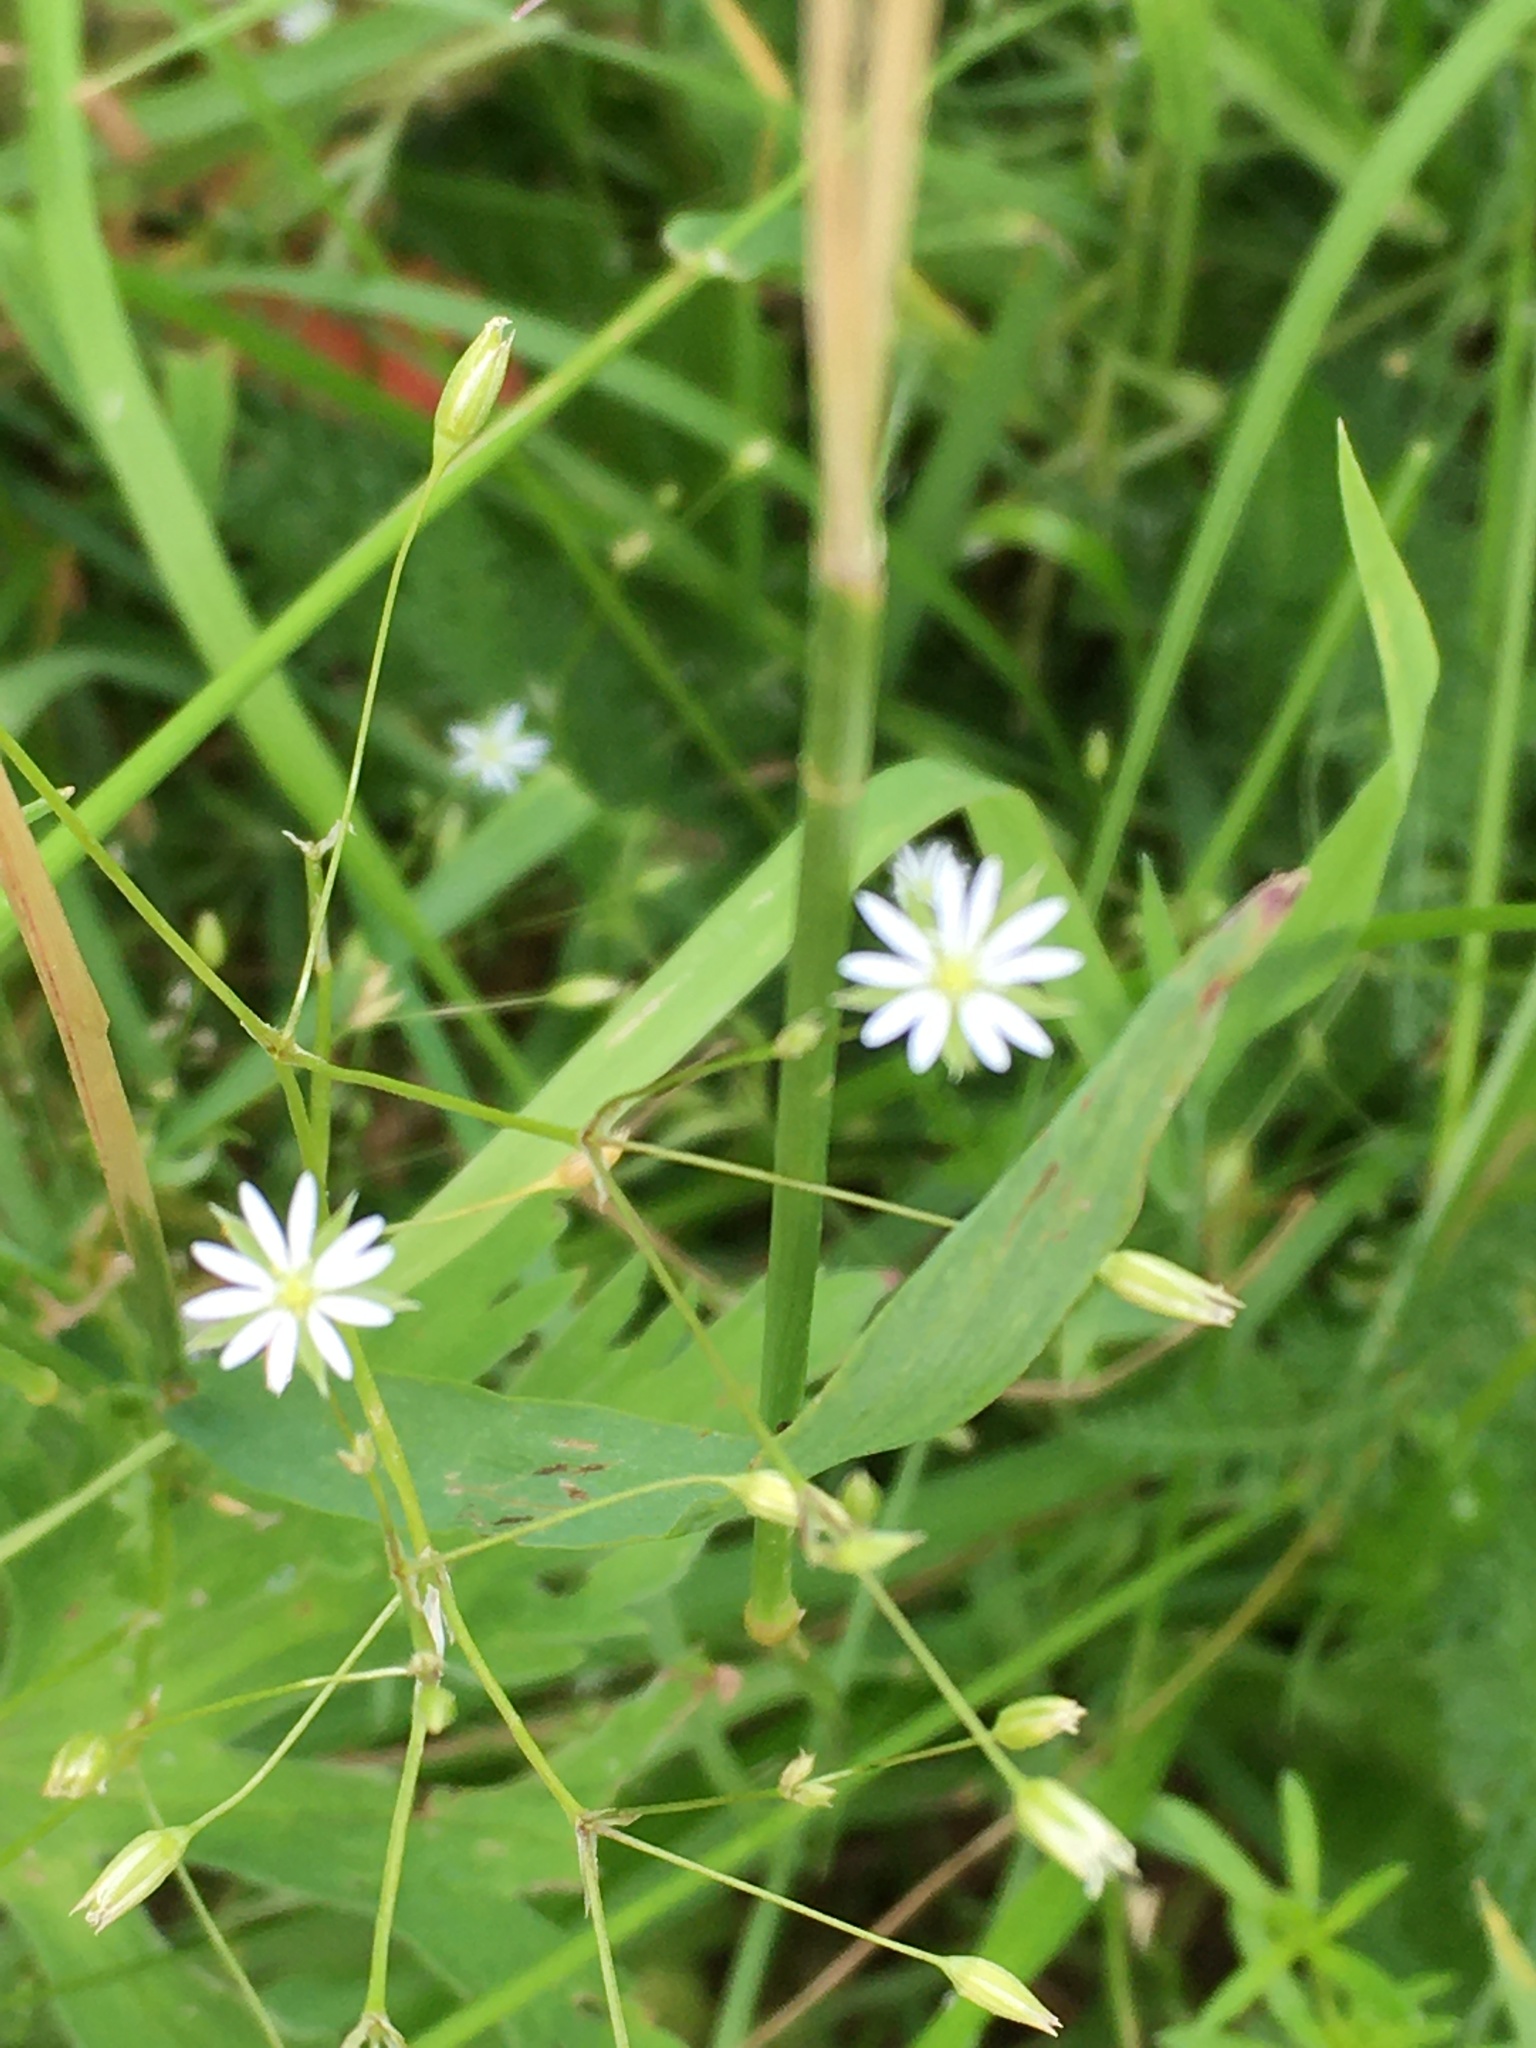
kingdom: Plantae
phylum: Tracheophyta
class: Magnoliopsida
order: Caryophyllales
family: Caryophyllaceae
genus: Stellaria
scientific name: Stellaria graminea
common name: Grass-like starwort
